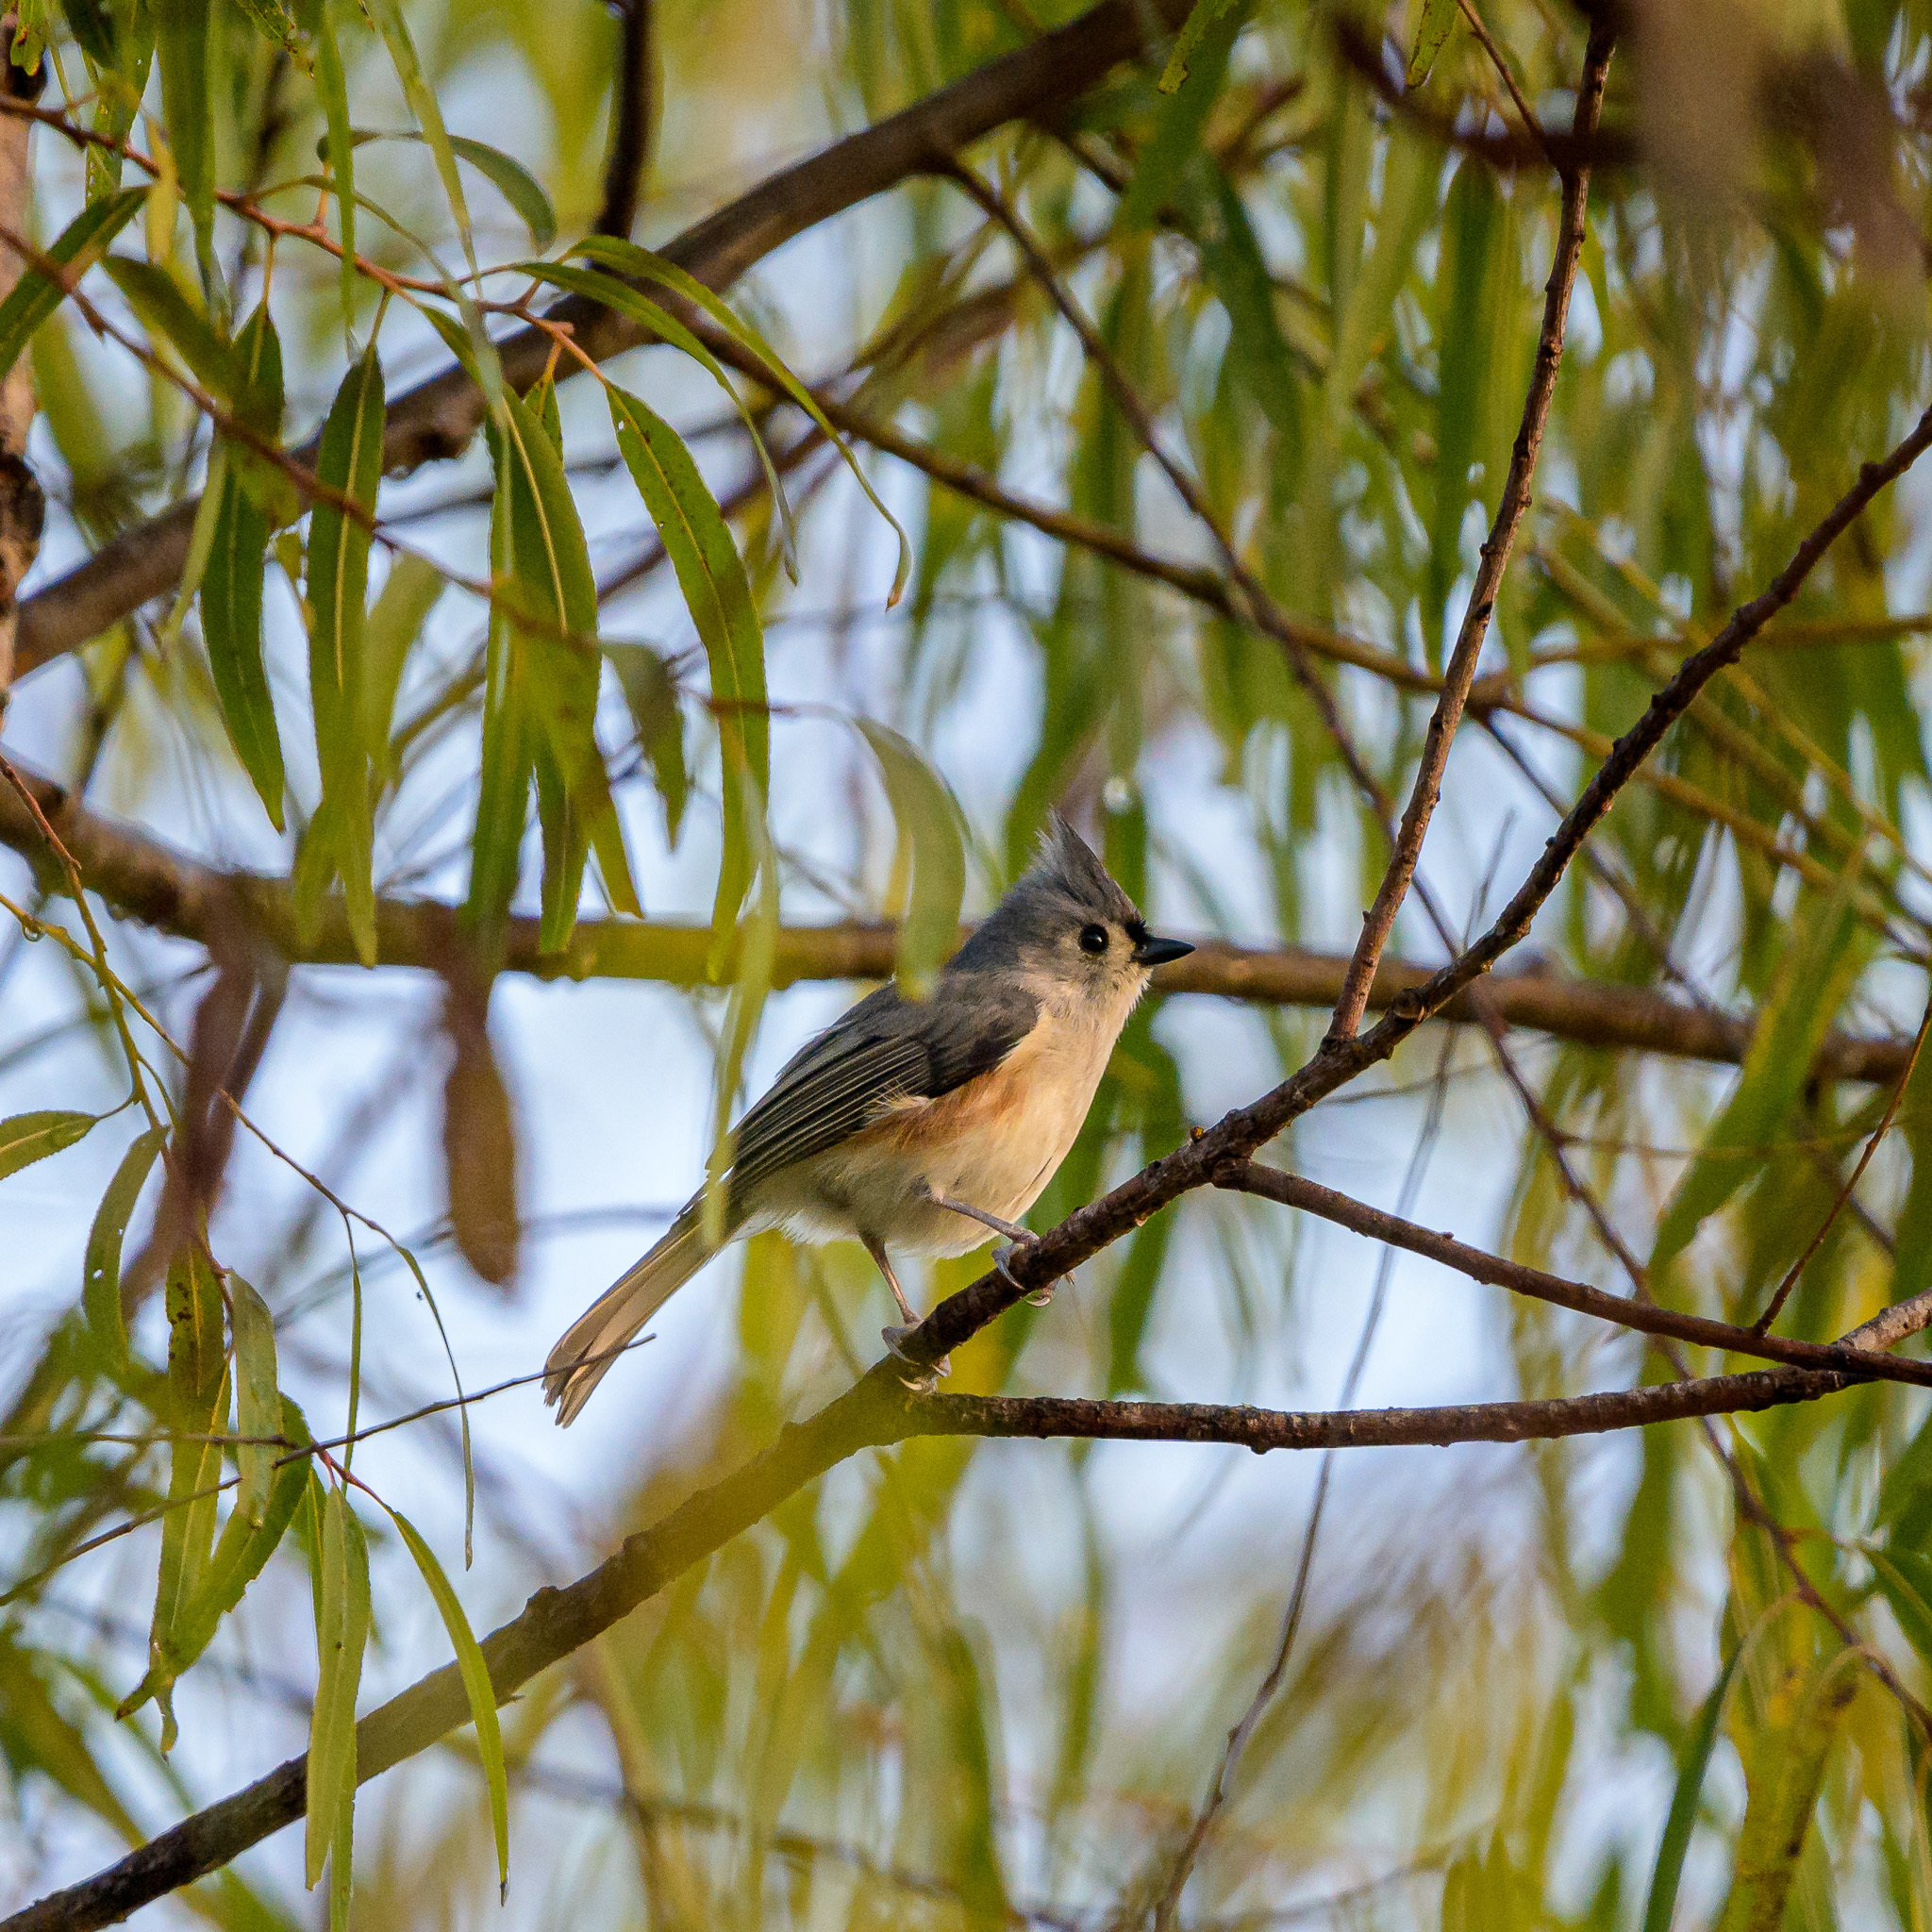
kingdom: Animalia
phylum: Chordata
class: Aves
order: Passeriformes
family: Paridae
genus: Baeolophus
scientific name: Baeolophus bicolor
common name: Tufted titmouse
